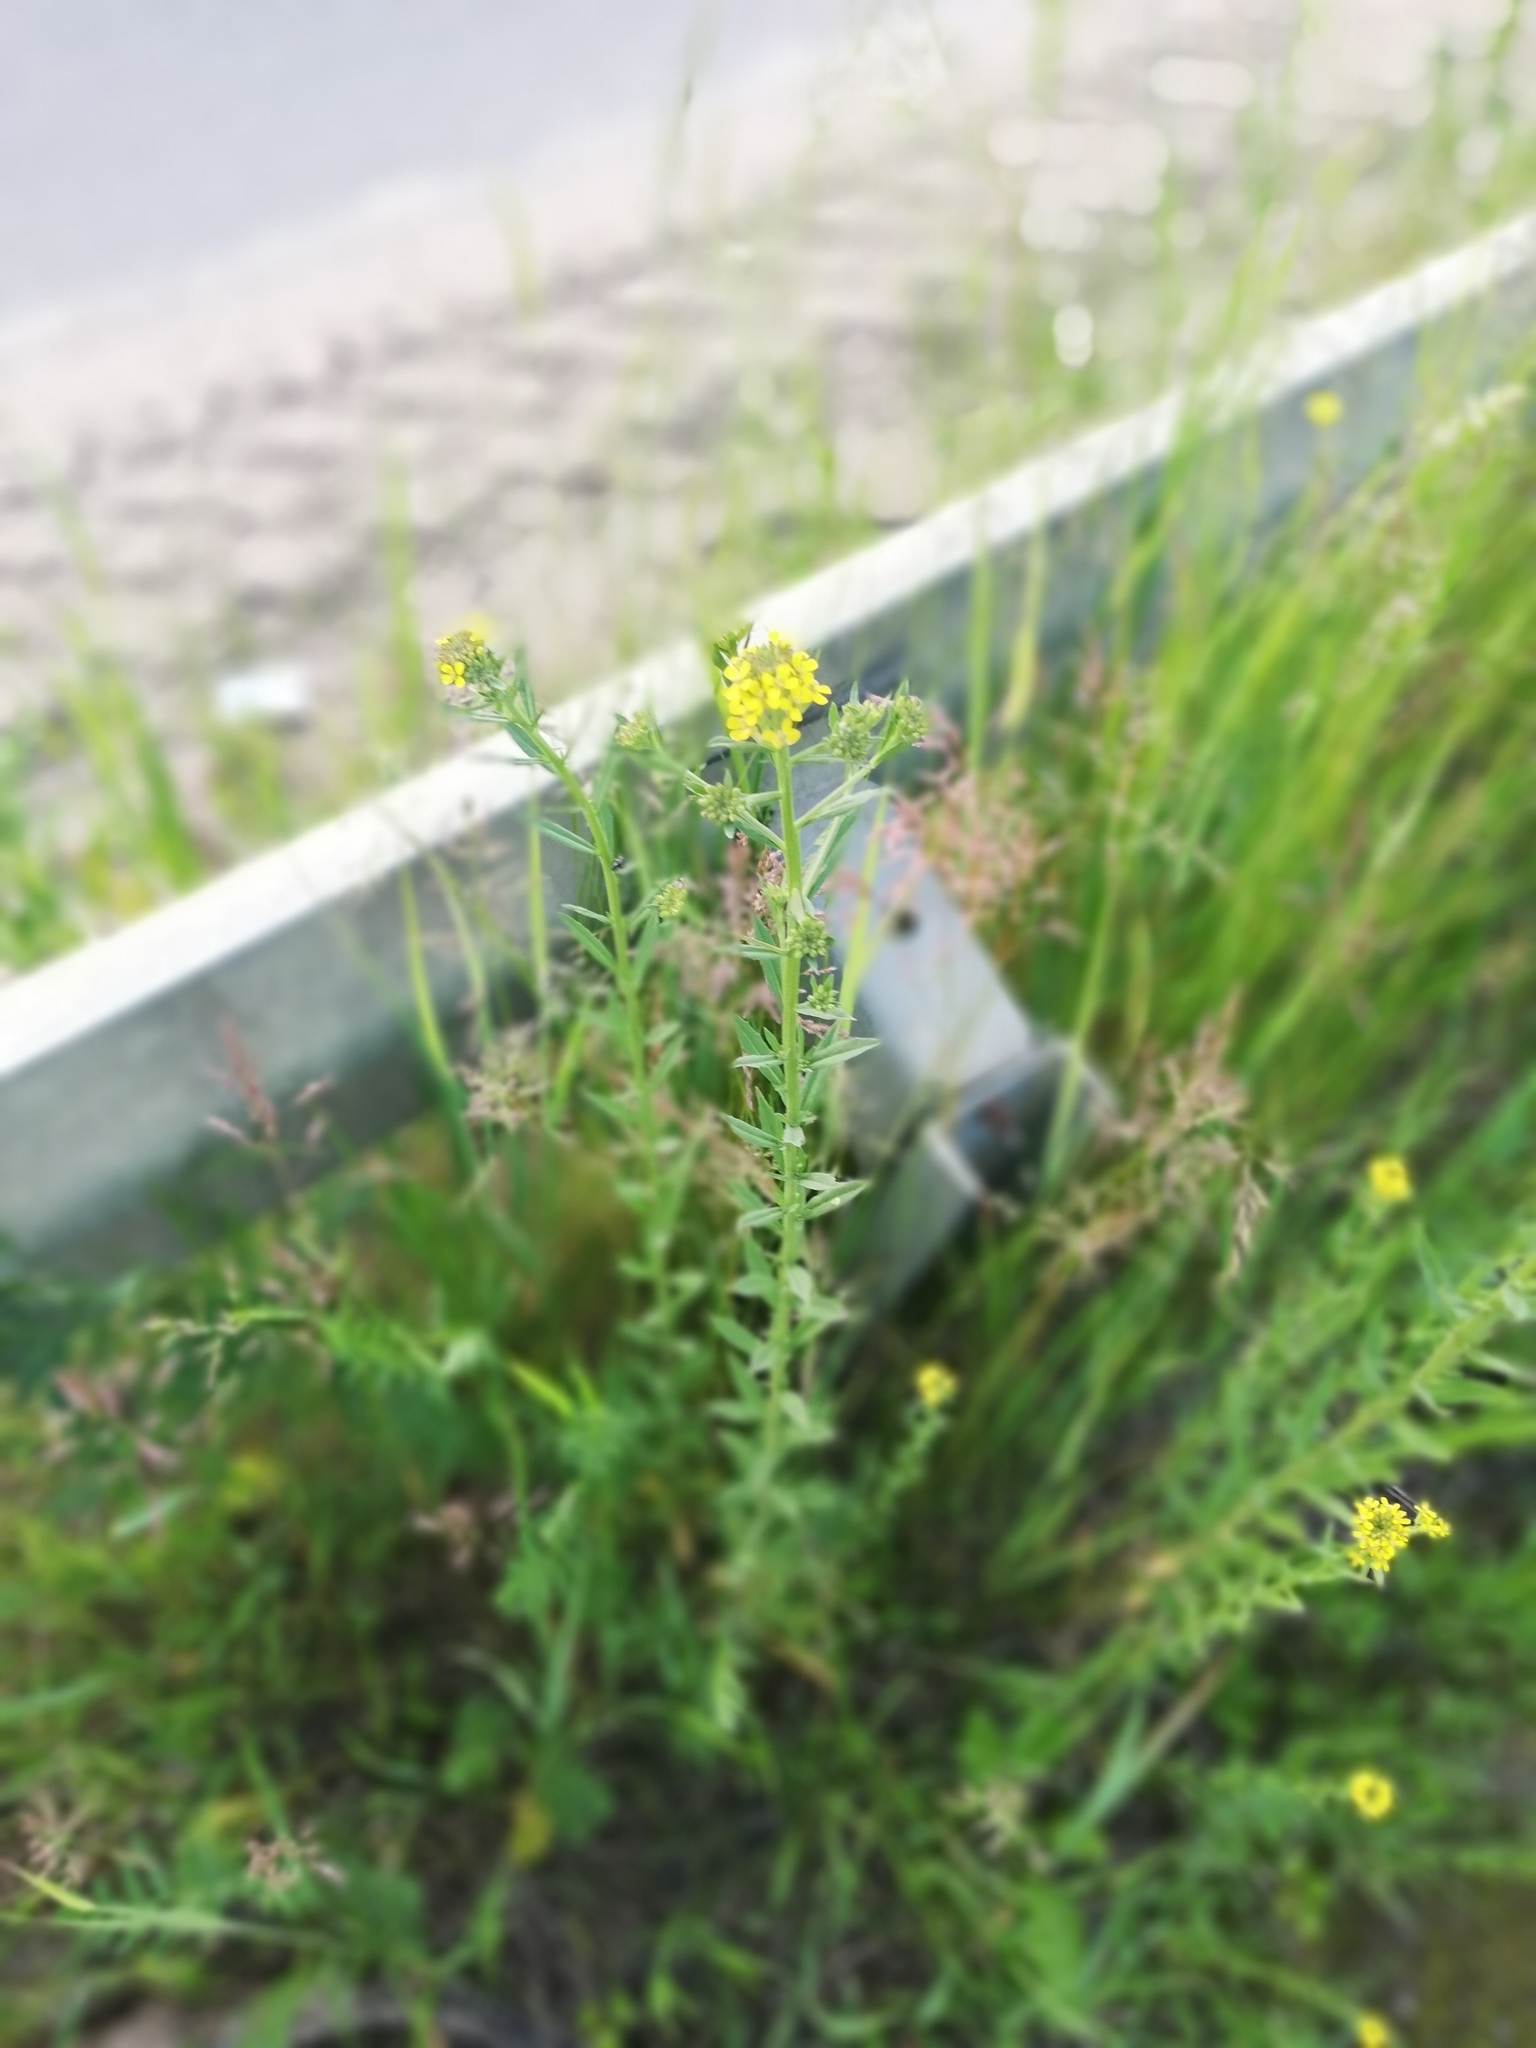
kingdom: Plantae
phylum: Tracheophyta
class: Magnoliopsida
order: Brassicales
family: Brassicaceae
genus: Erysimum
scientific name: Erysimum cheiranthoides
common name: Treacle mustard
